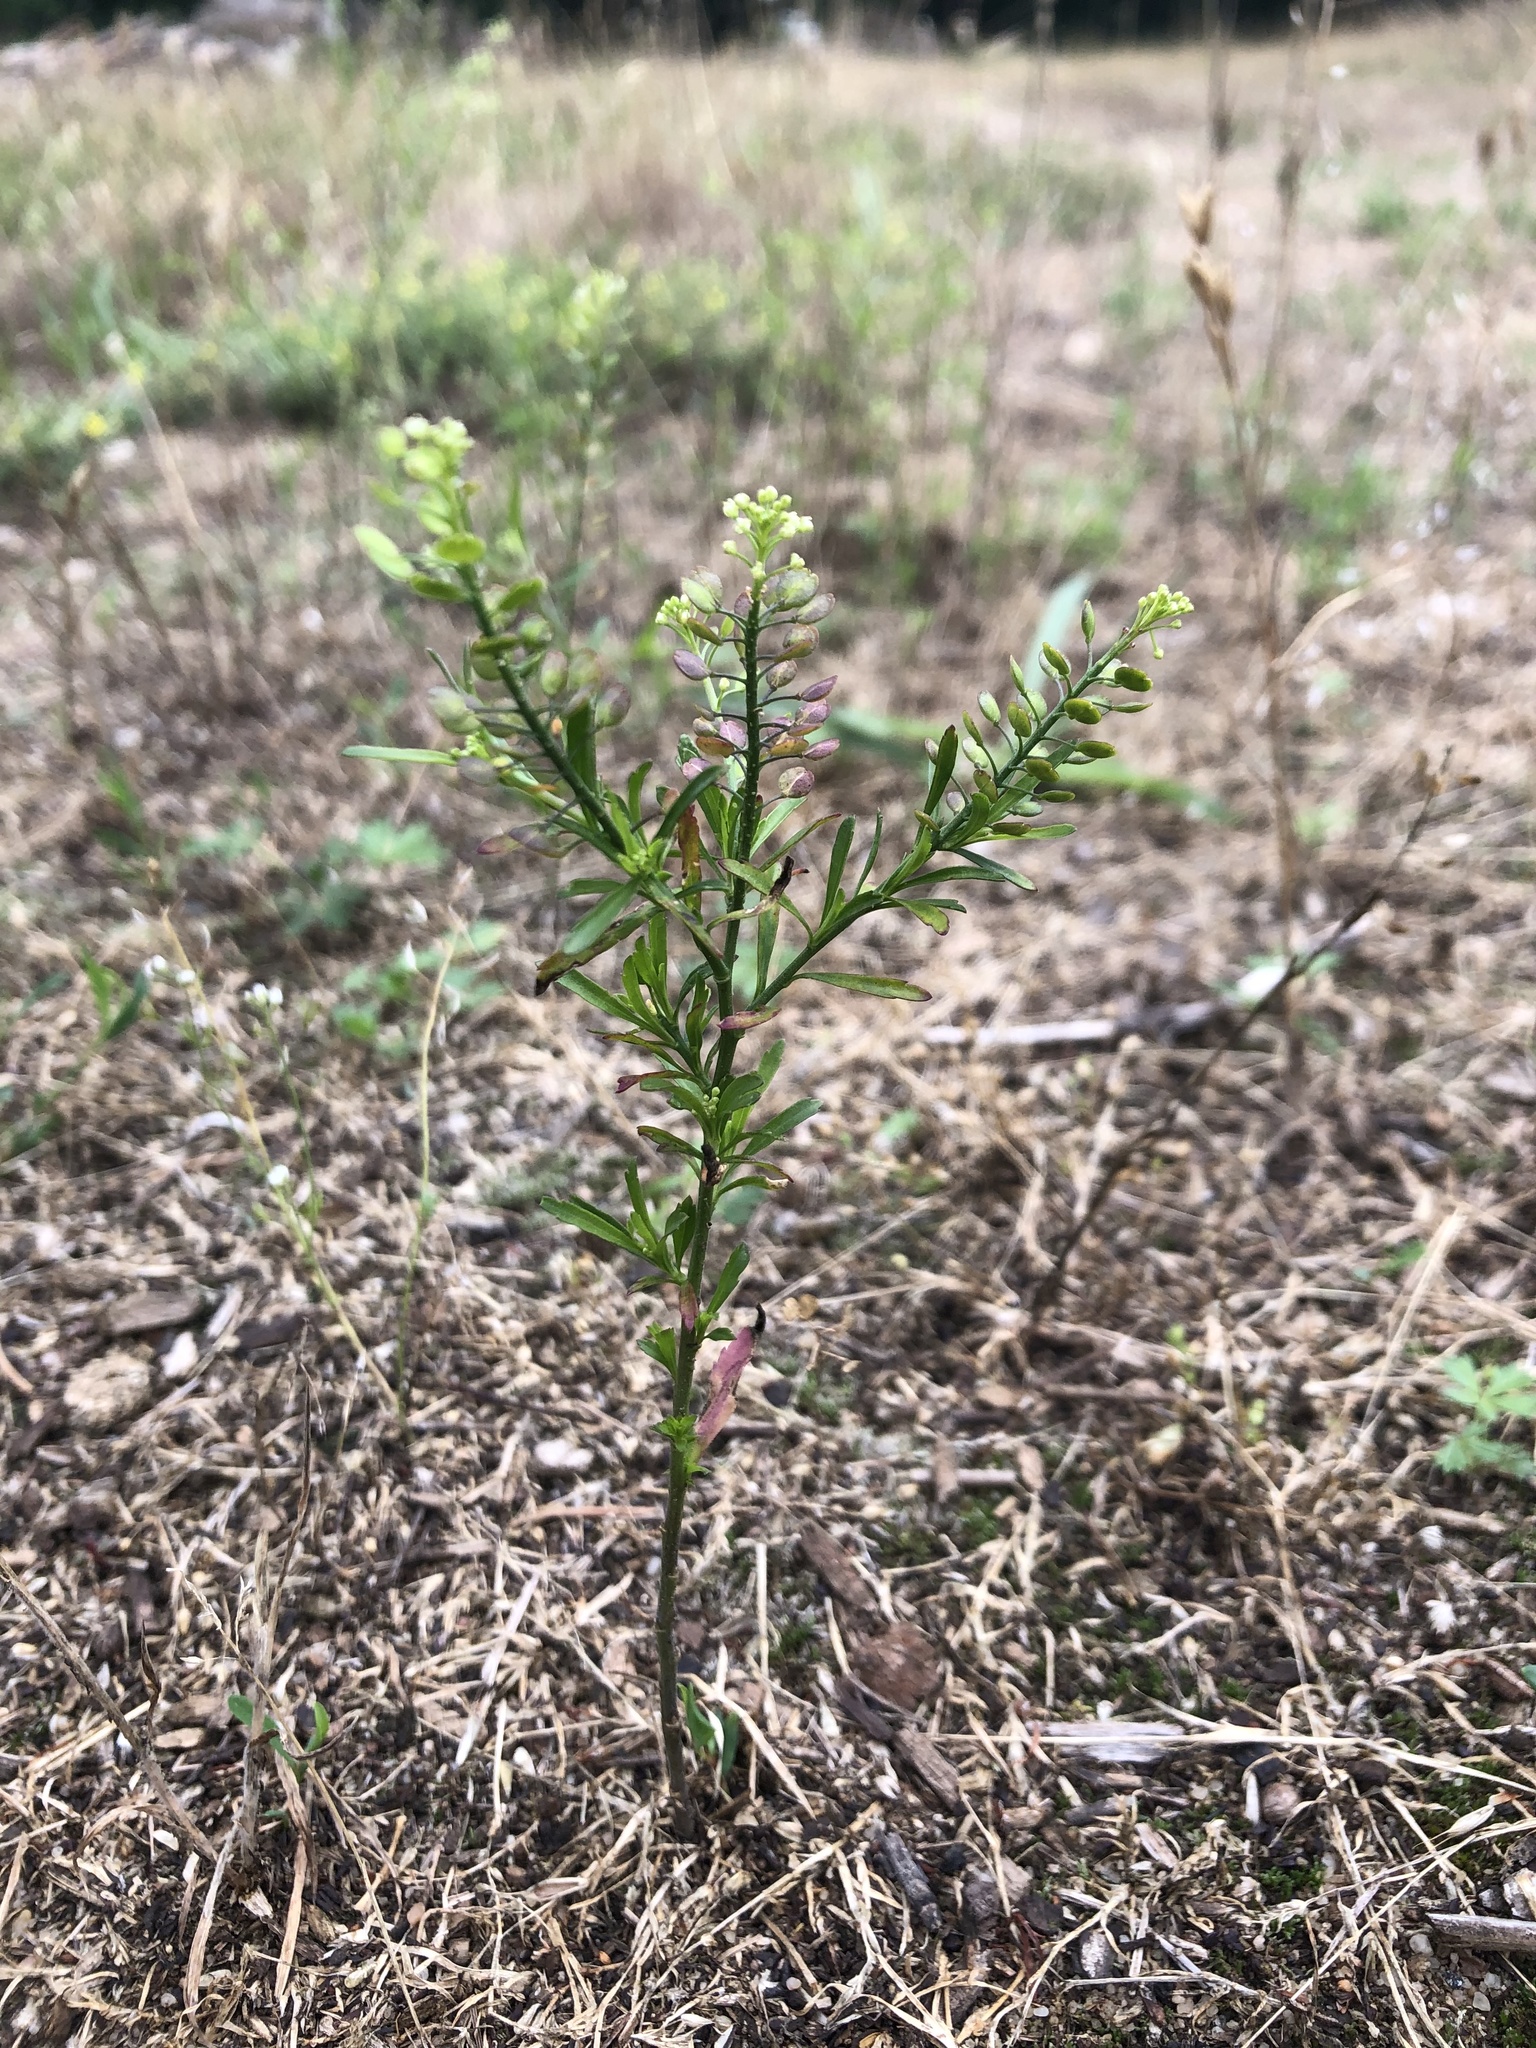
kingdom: Plantae
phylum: Tracheophyta
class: Magnoliopsida
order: Brassicales
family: Brassicaceae
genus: Lepidium
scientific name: Lepidium virginicum
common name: Least pepperwort
